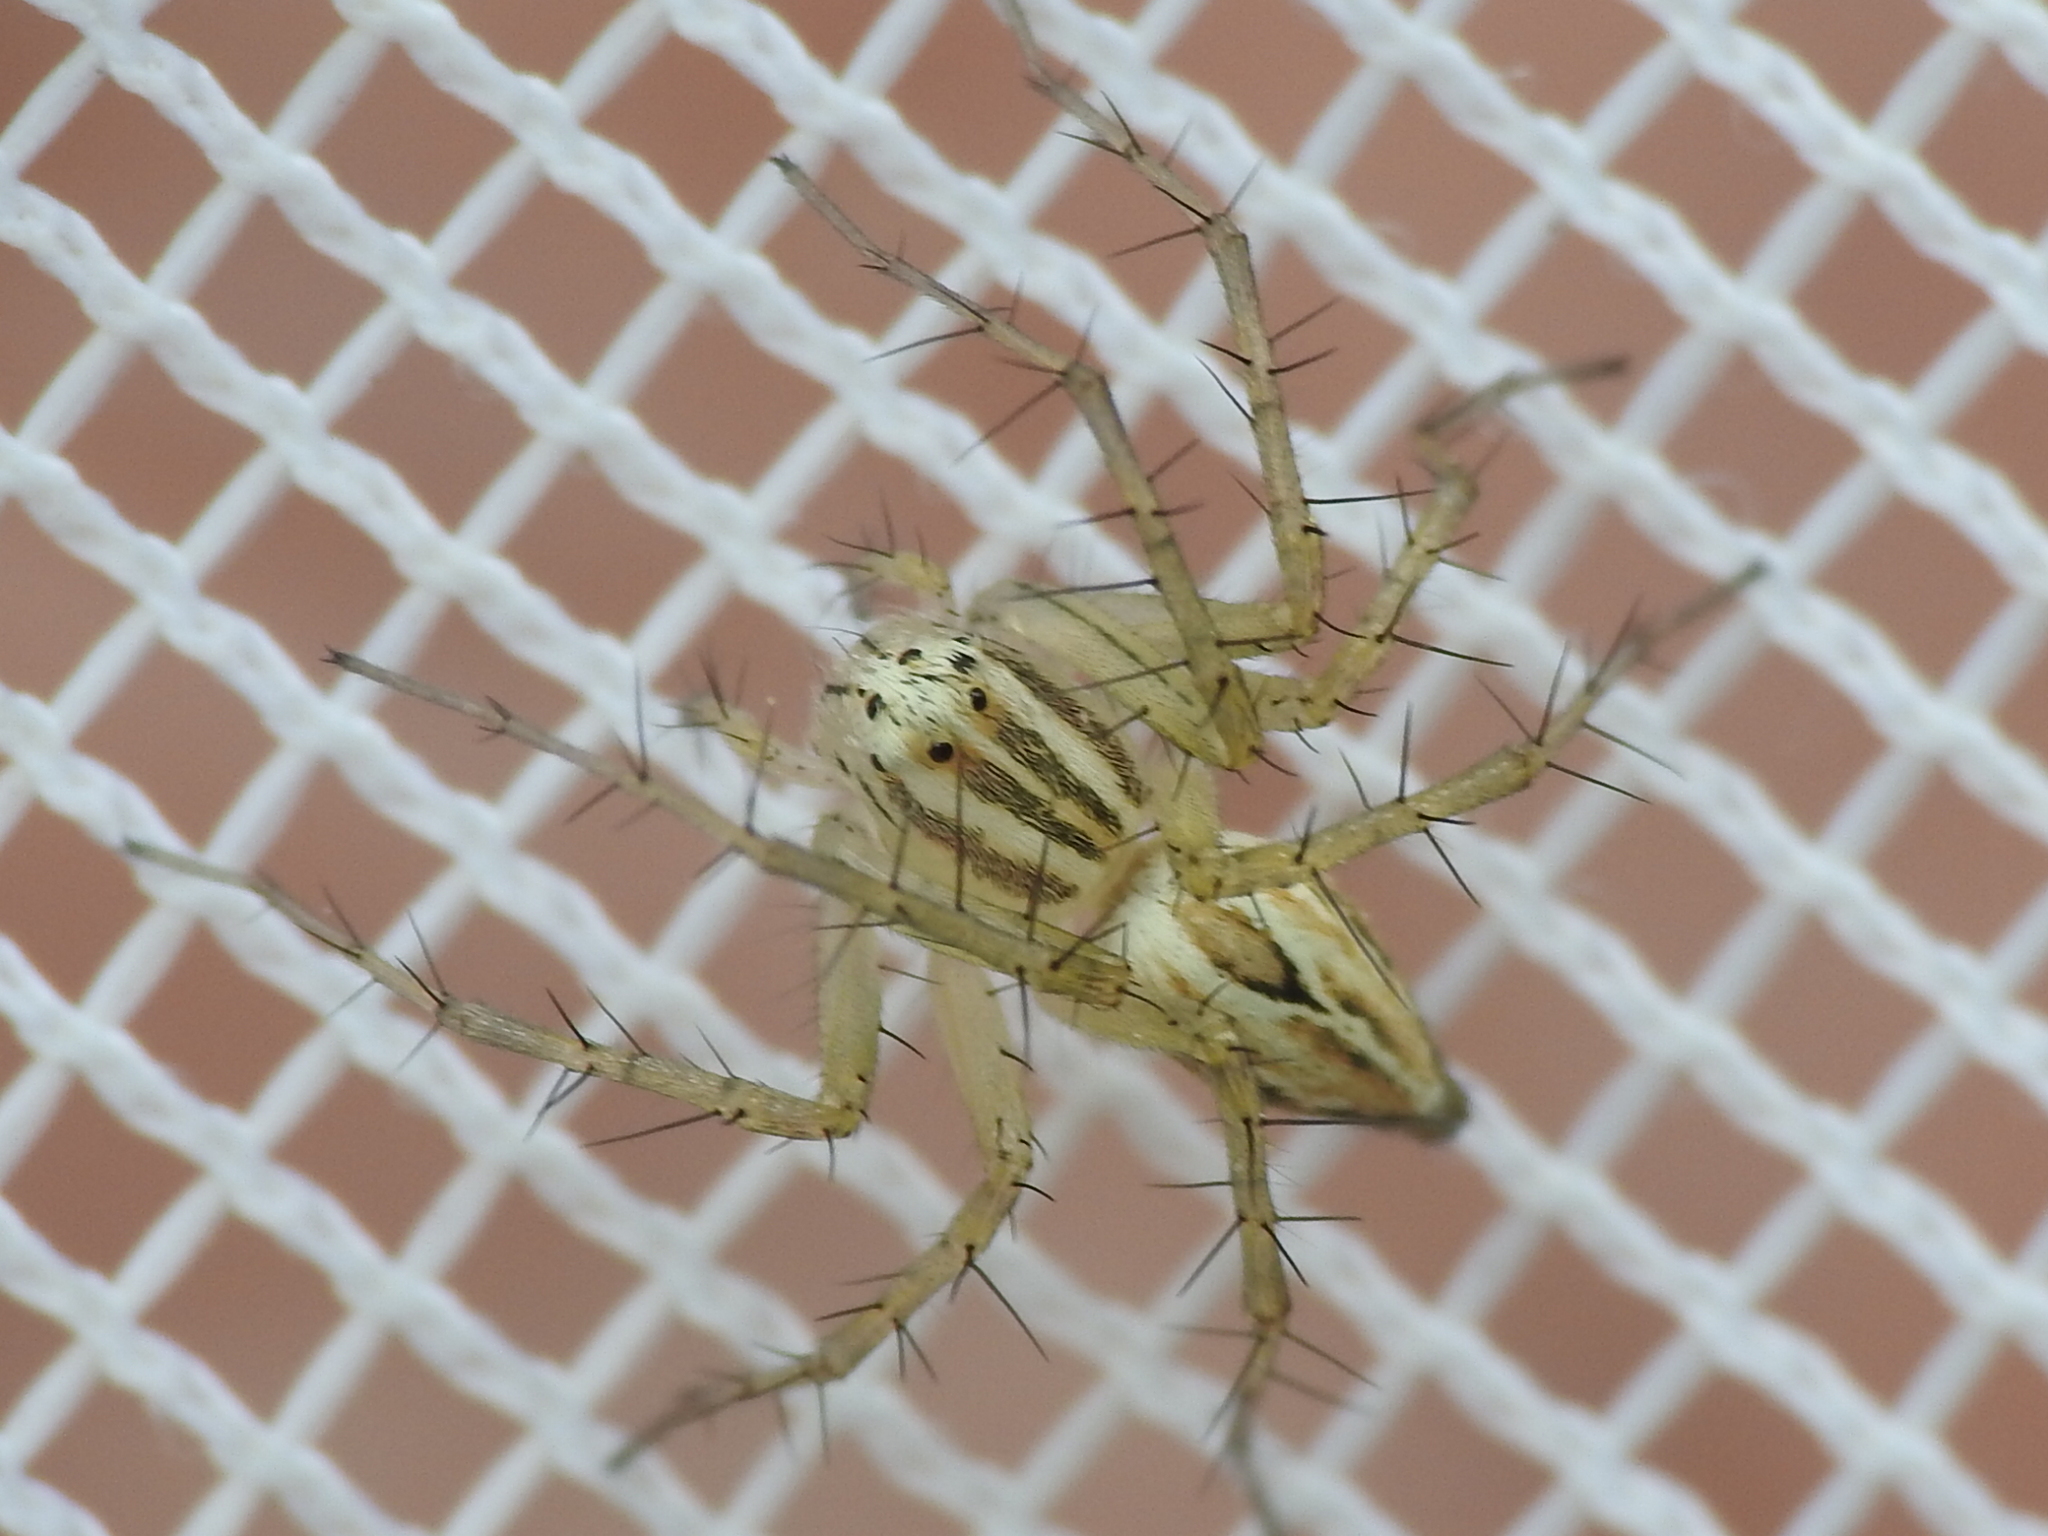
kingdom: Animalia
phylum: Arthropoda
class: Arachnida
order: Araneae
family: Oxyopidae
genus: Oxyopes
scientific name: Oxyopes salticus
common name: Lynx spiders
